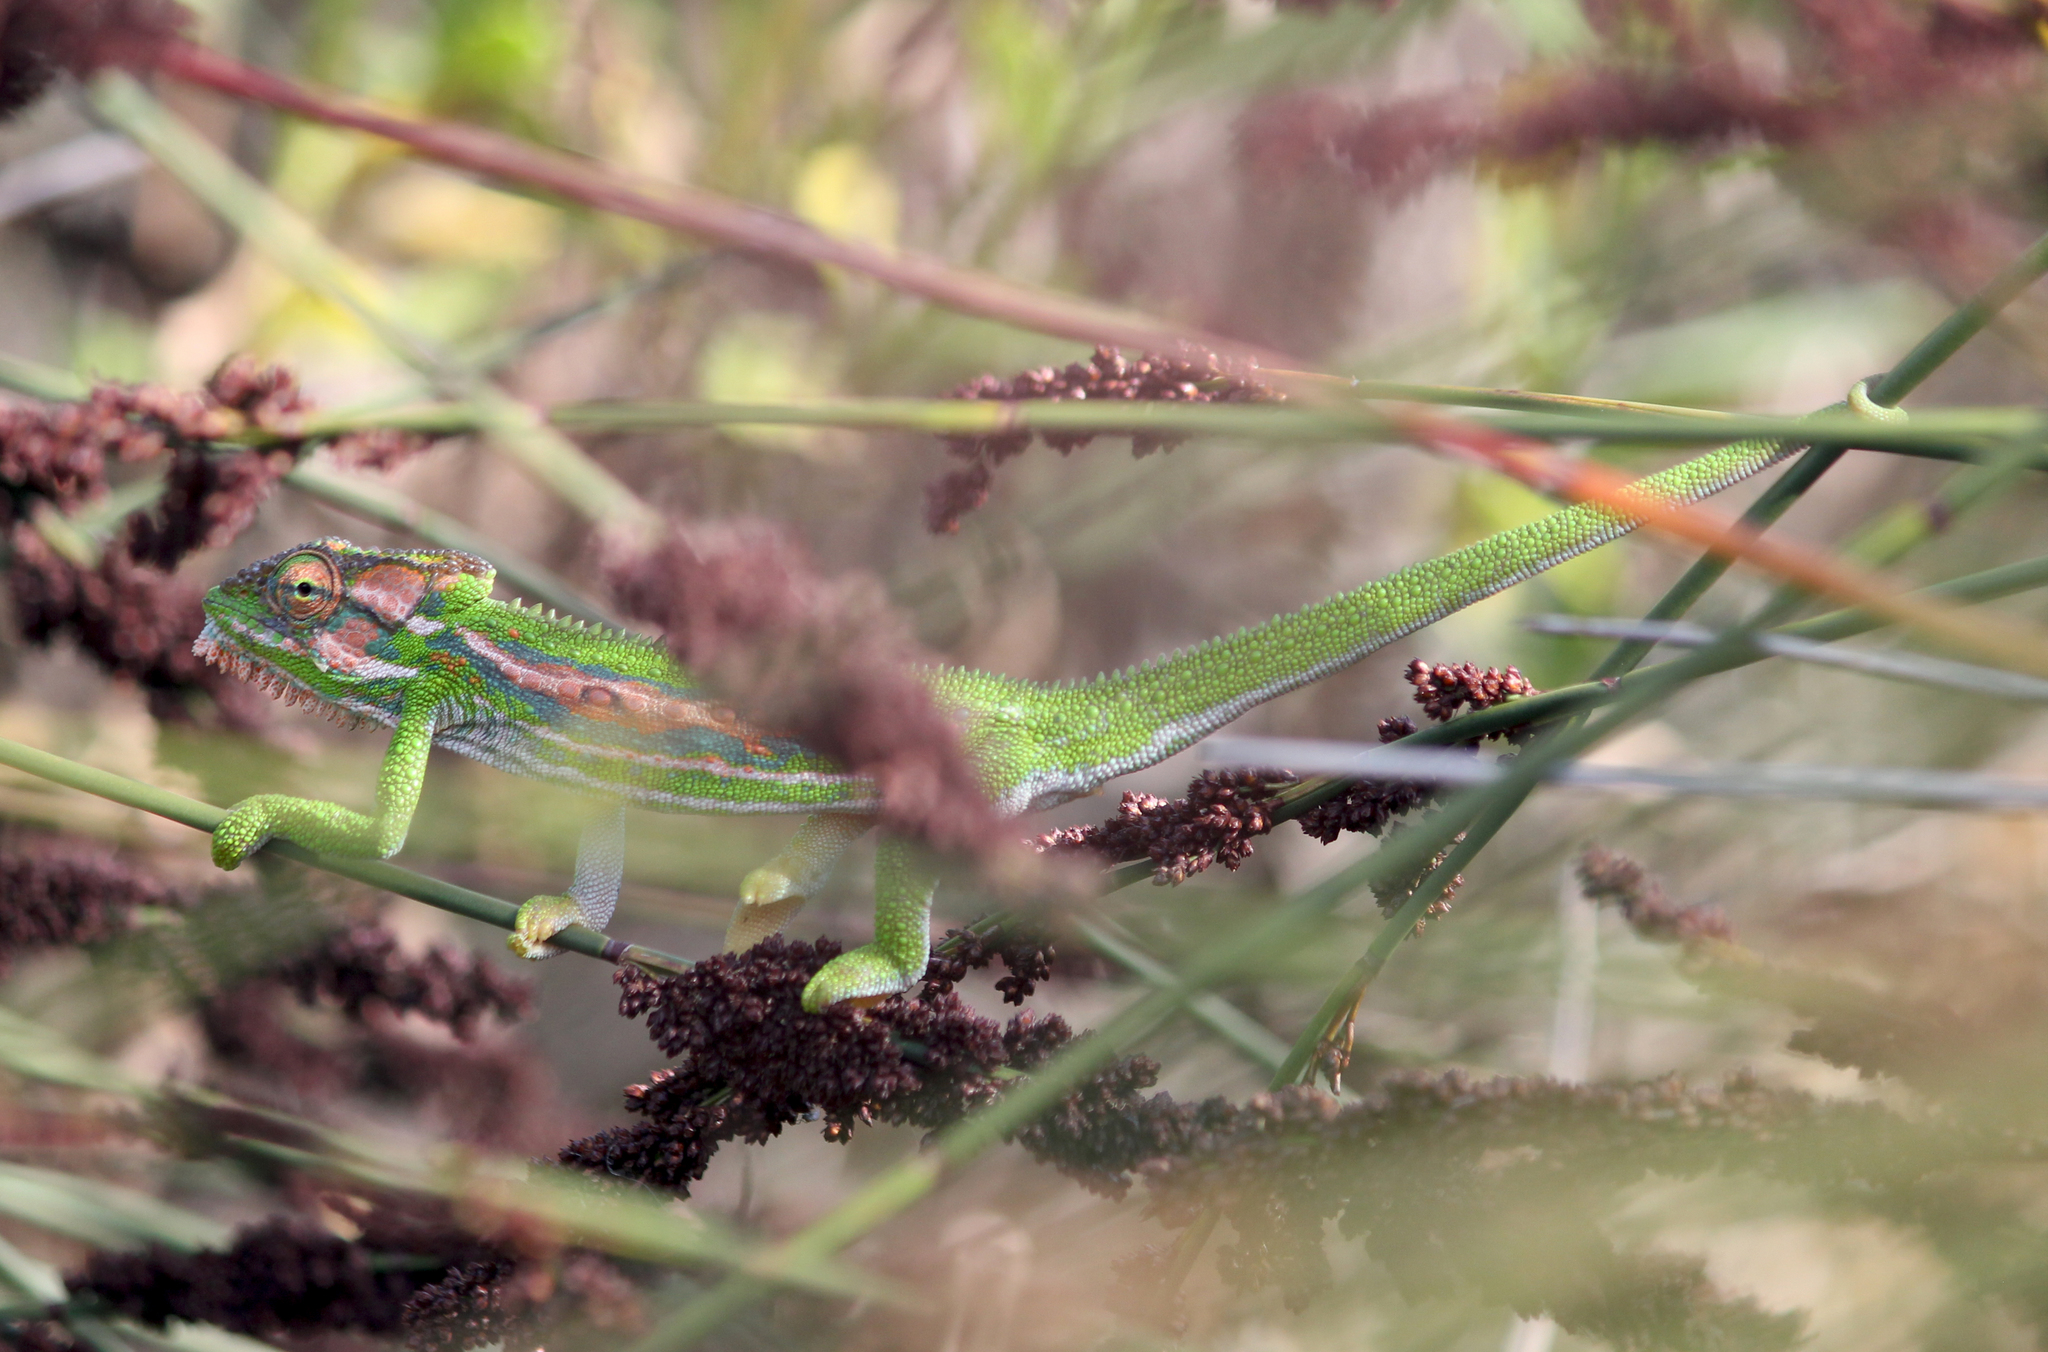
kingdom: Animalia
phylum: Chordata
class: Squamata
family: Chamaeleonidae
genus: Bradypodion
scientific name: Bradypodion pumilum
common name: Cape dwarf chameleon
